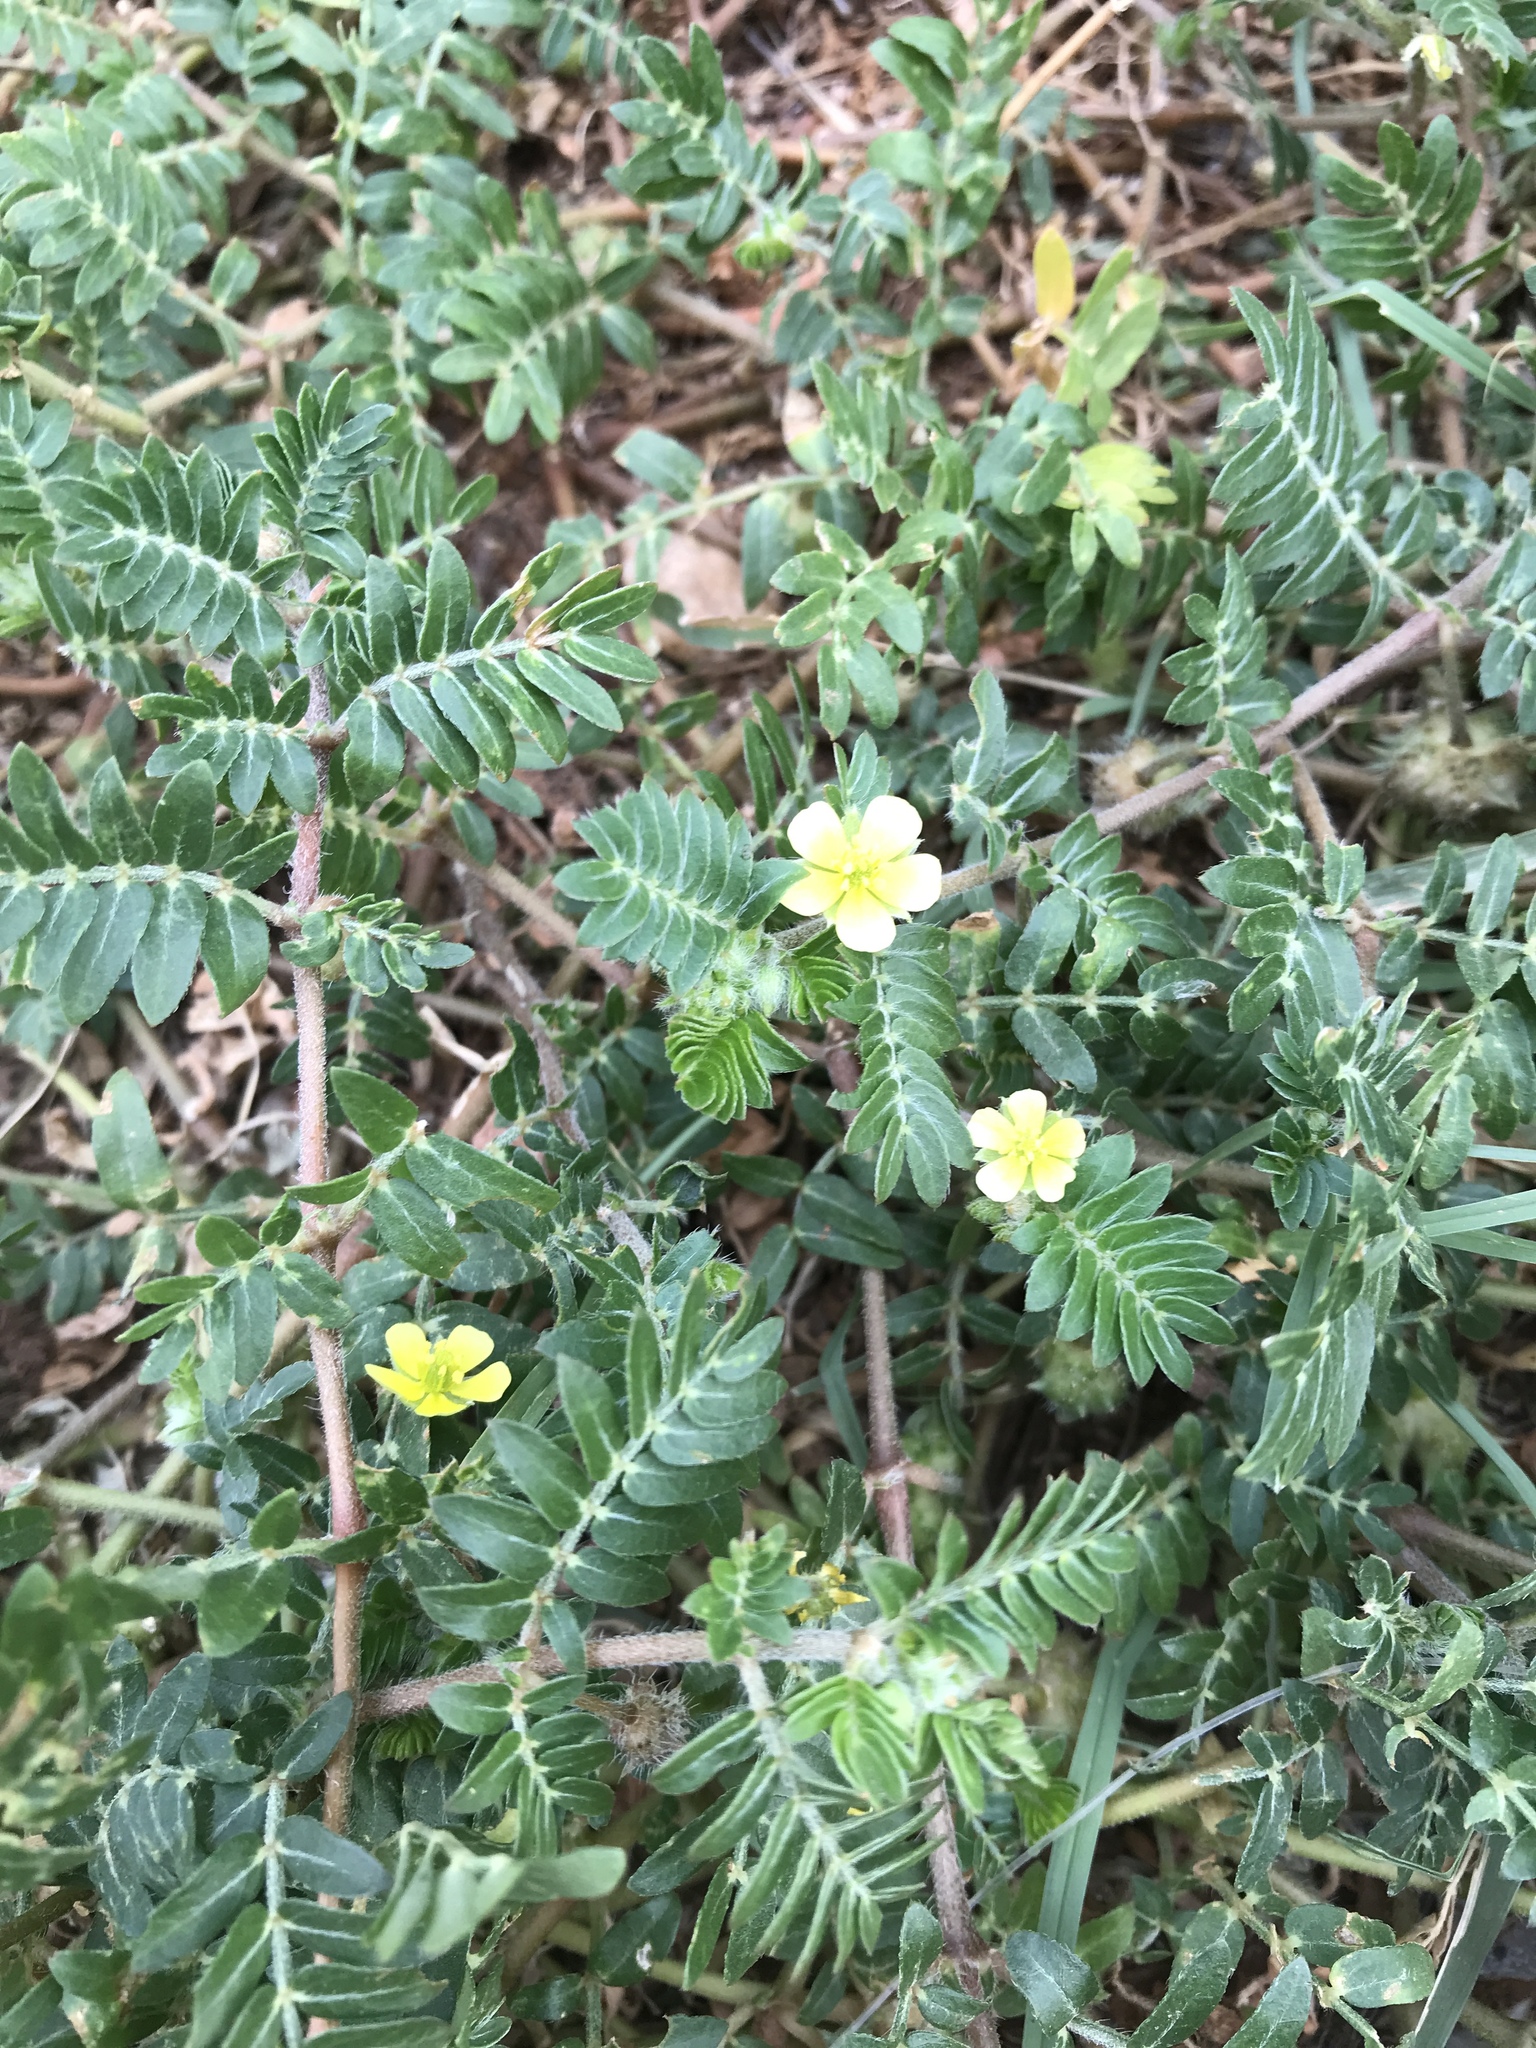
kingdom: Plantae
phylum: Tracheophyta
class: Magnoliopsida
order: Zygophyllales
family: Zygophyllaceae
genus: Tribulus
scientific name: Tribulus terrestris
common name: Puncturevine
